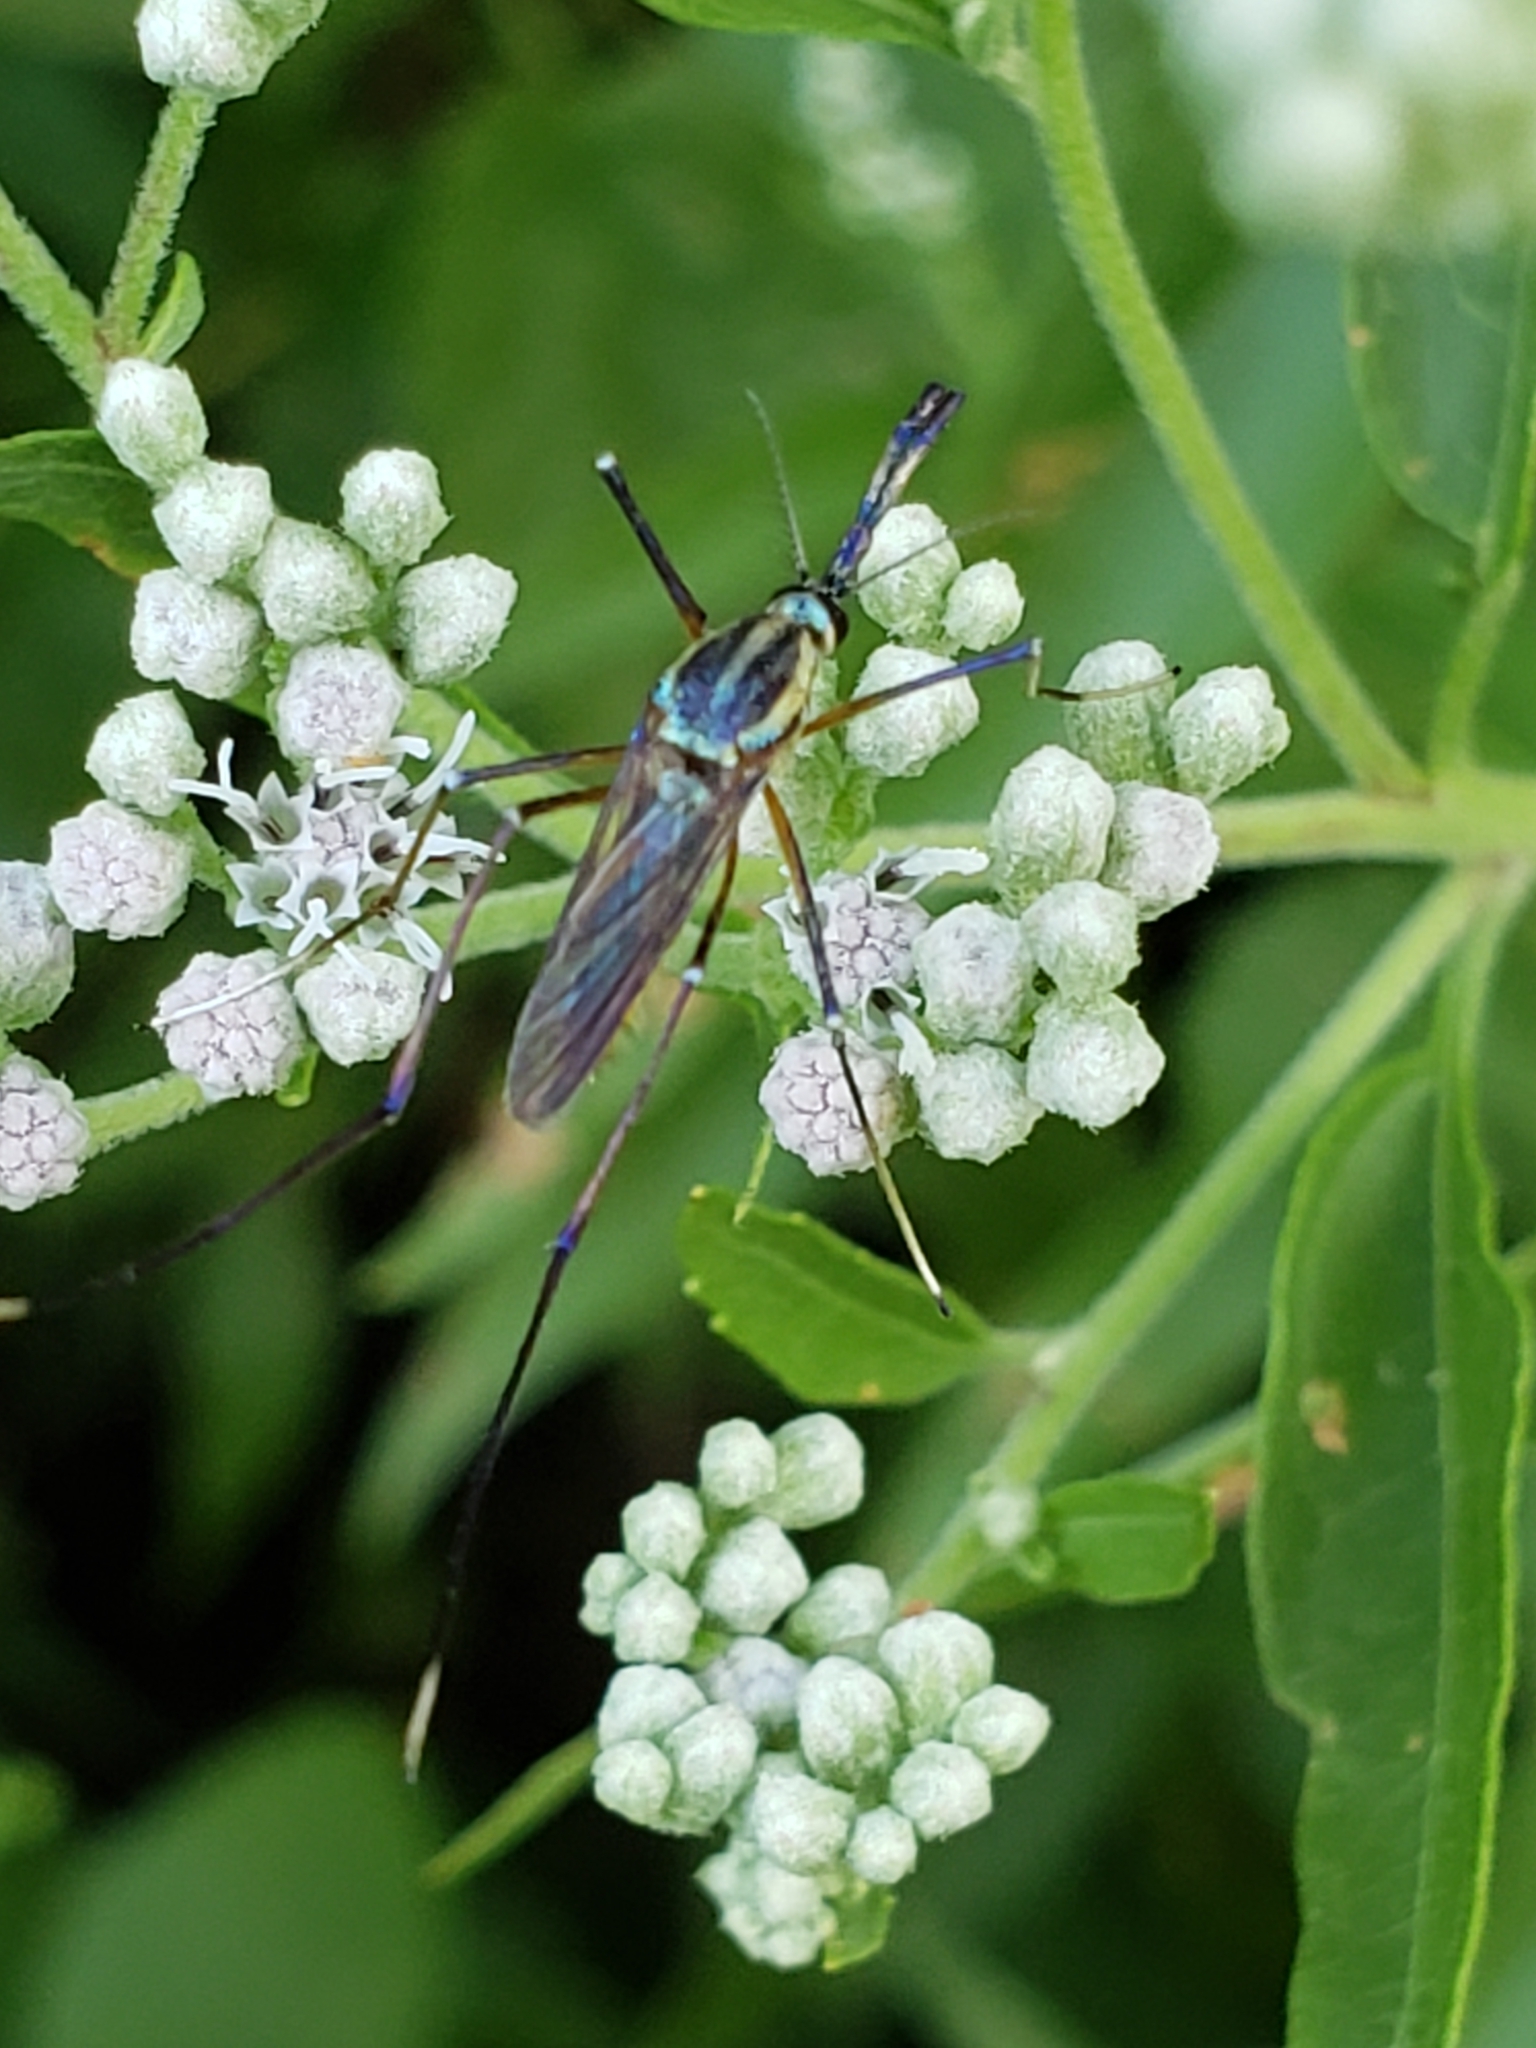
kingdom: Animalia
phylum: Arthropoda
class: Insecta
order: Diptera
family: Culicidae
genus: Toxorhynchites
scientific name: Toxorhynchites rutilus
